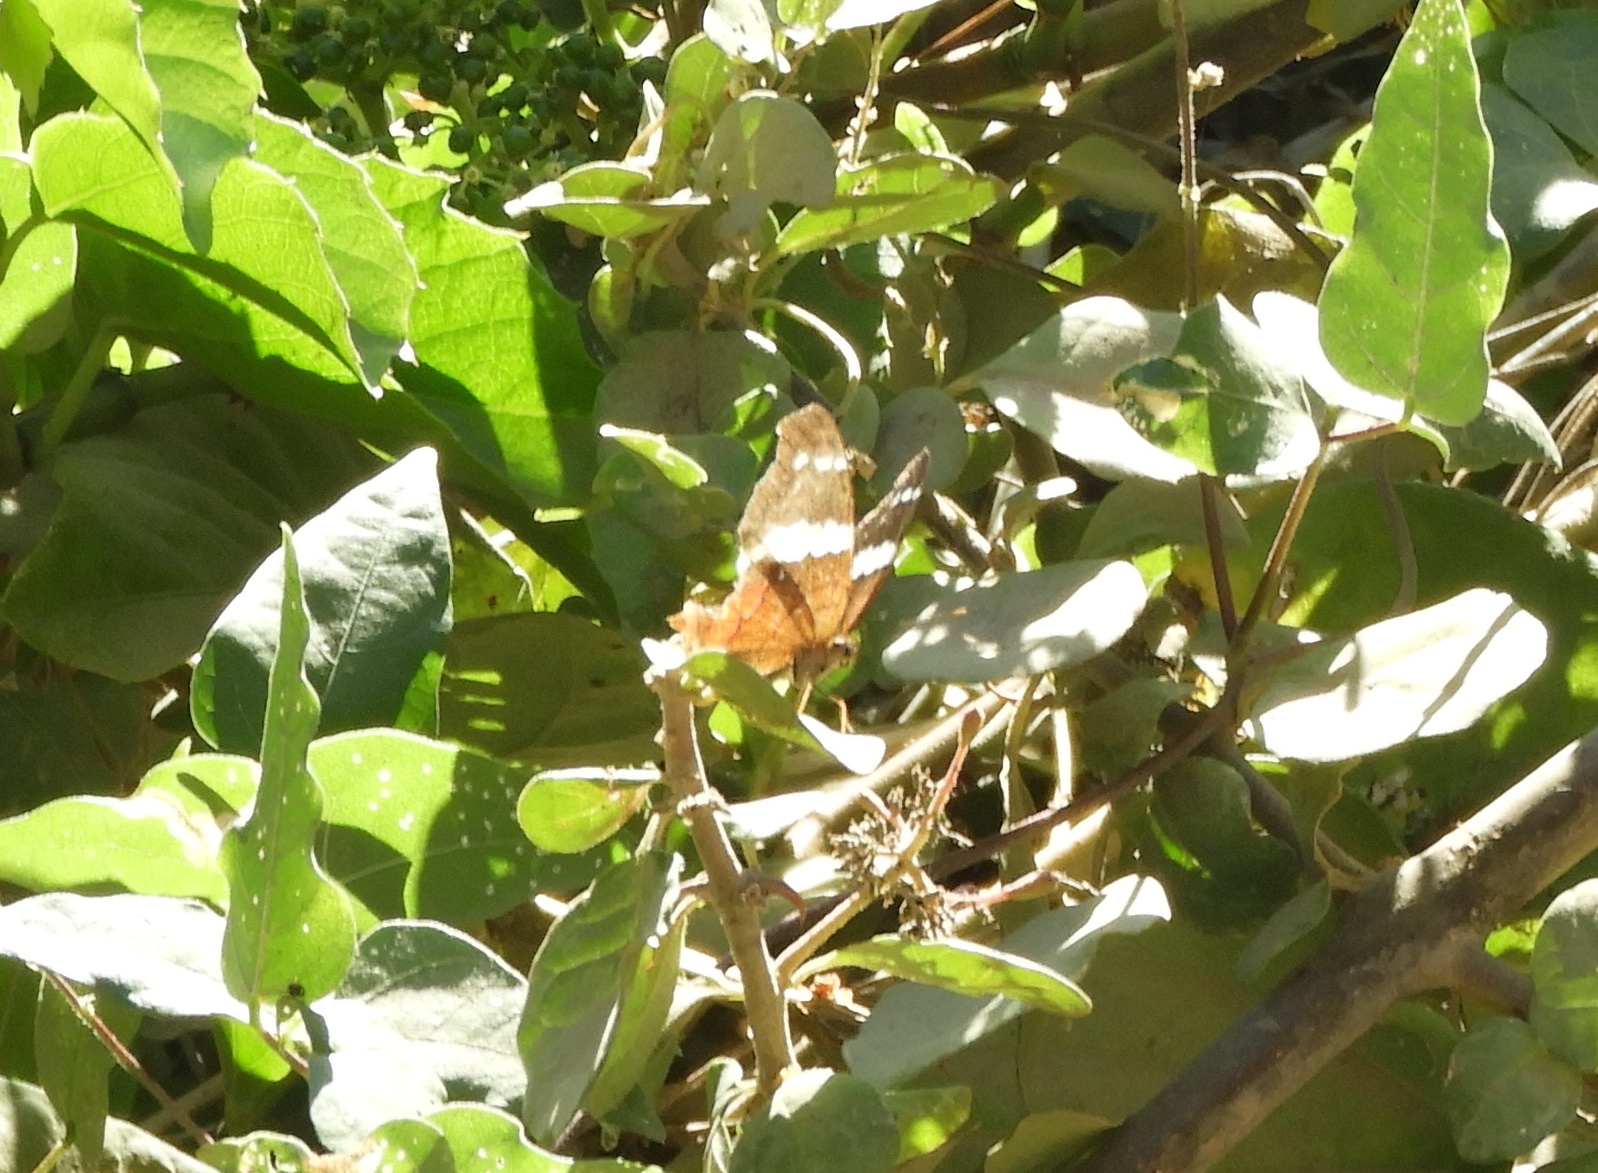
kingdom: Animalia
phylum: Arthropoda
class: Insecta
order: Lepidoptera
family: Nymphalidae
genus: Anartia
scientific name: Anartia fatima
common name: Banded peacock
